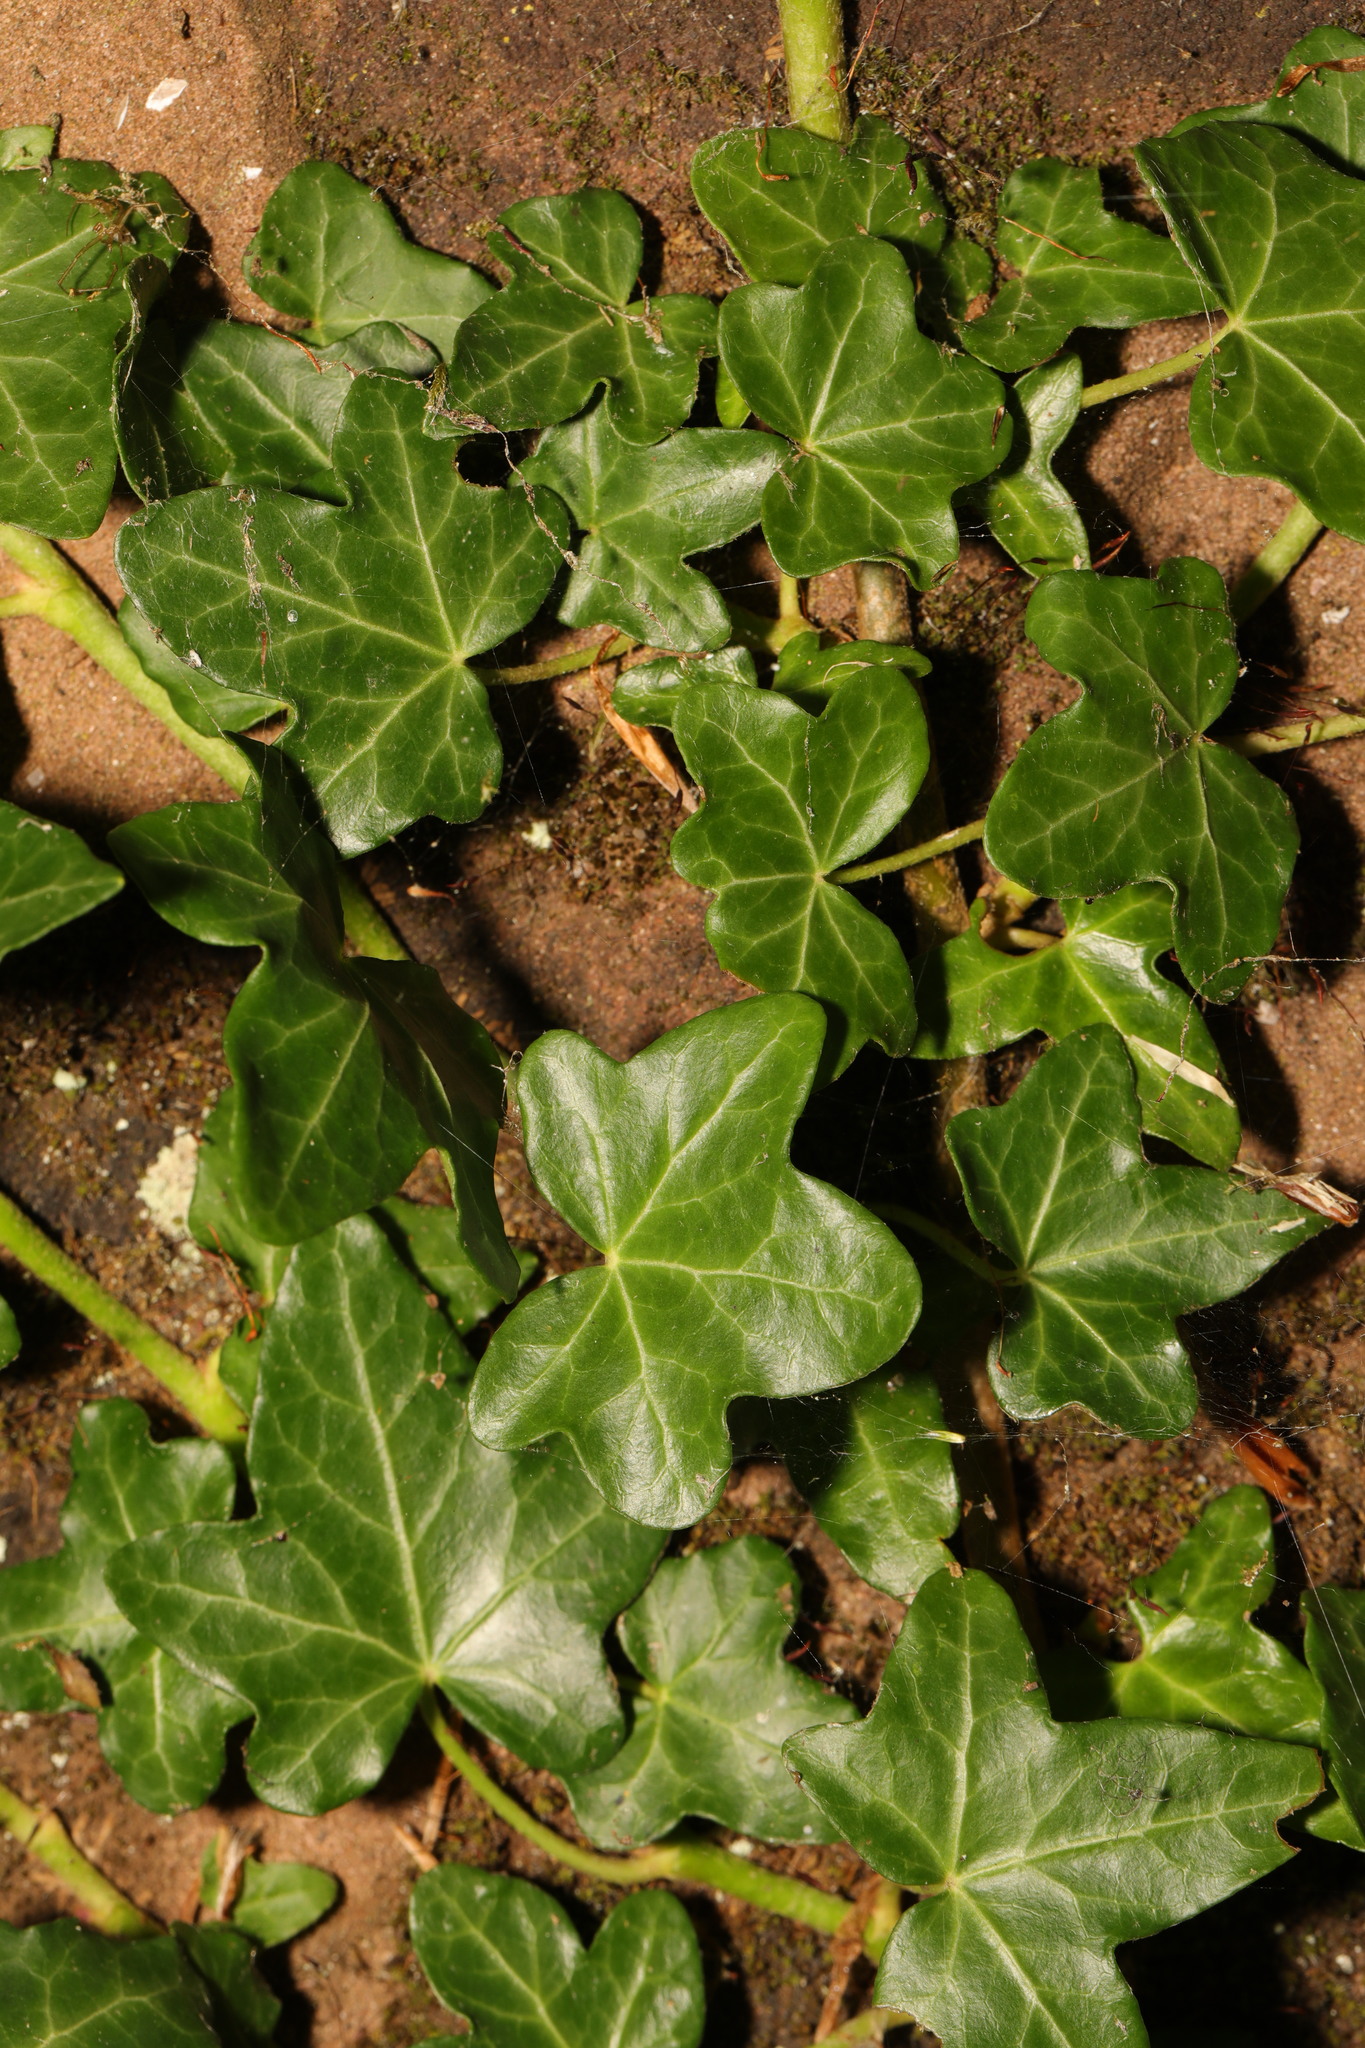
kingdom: Plantae
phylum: Tracheophyta
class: Magnoliopsida
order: Apiales
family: Araliaceae
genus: Hedera
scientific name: Hedera helix
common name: Ivy
